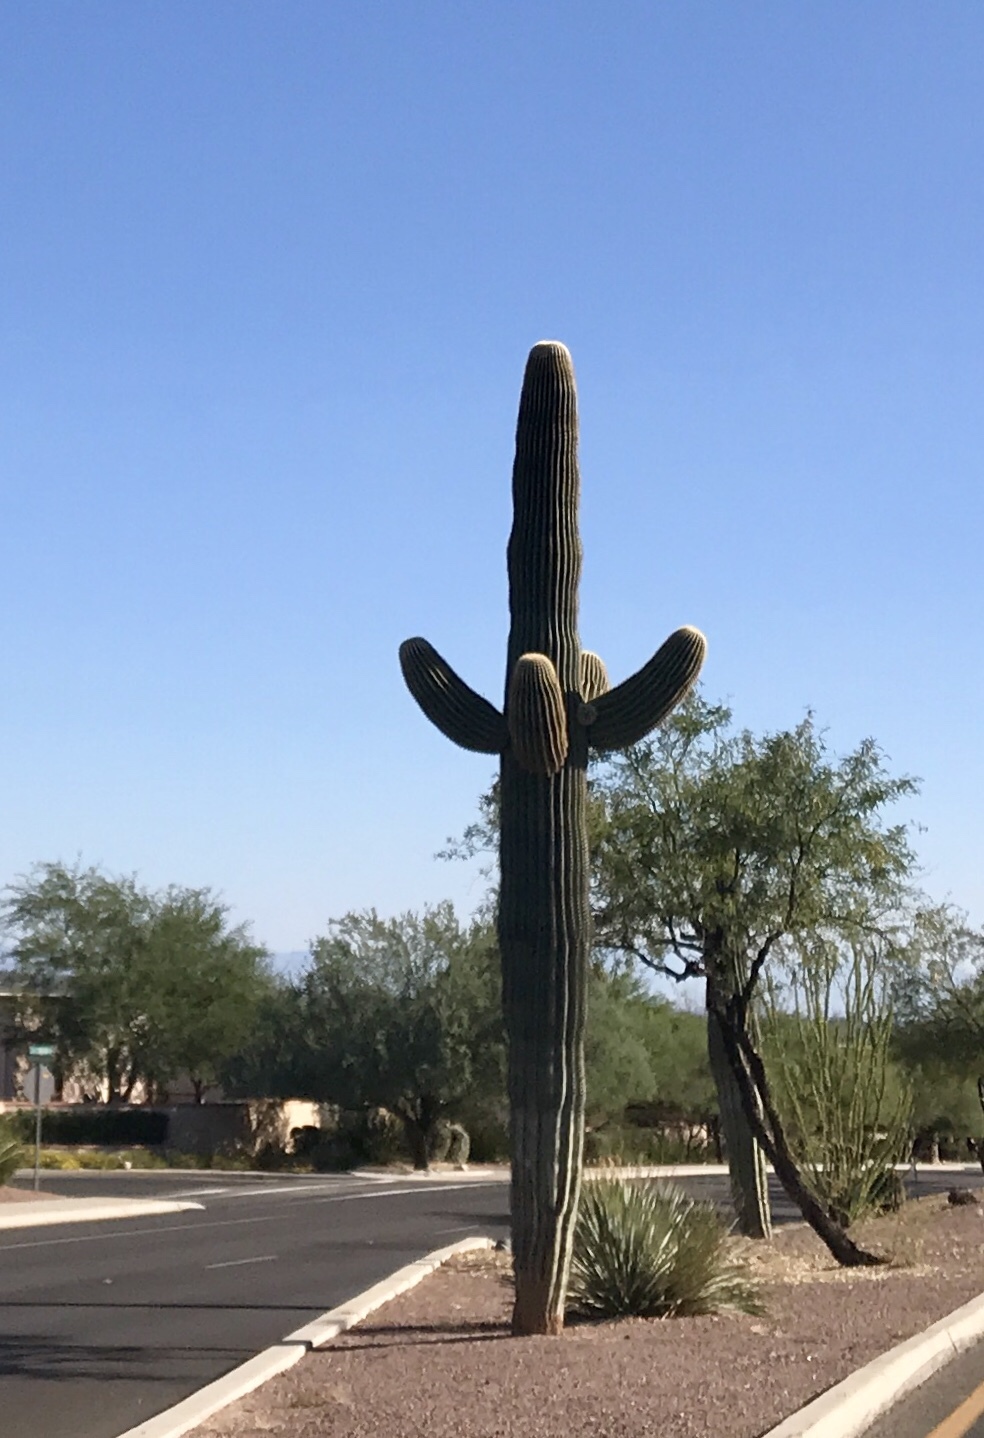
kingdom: Plantae
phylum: Tracheophyta
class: Magnoliopsida
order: Caryophyllales
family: Cactaceae
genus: Carnegiea
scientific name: Carnegiea gigantea
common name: Saguaro
